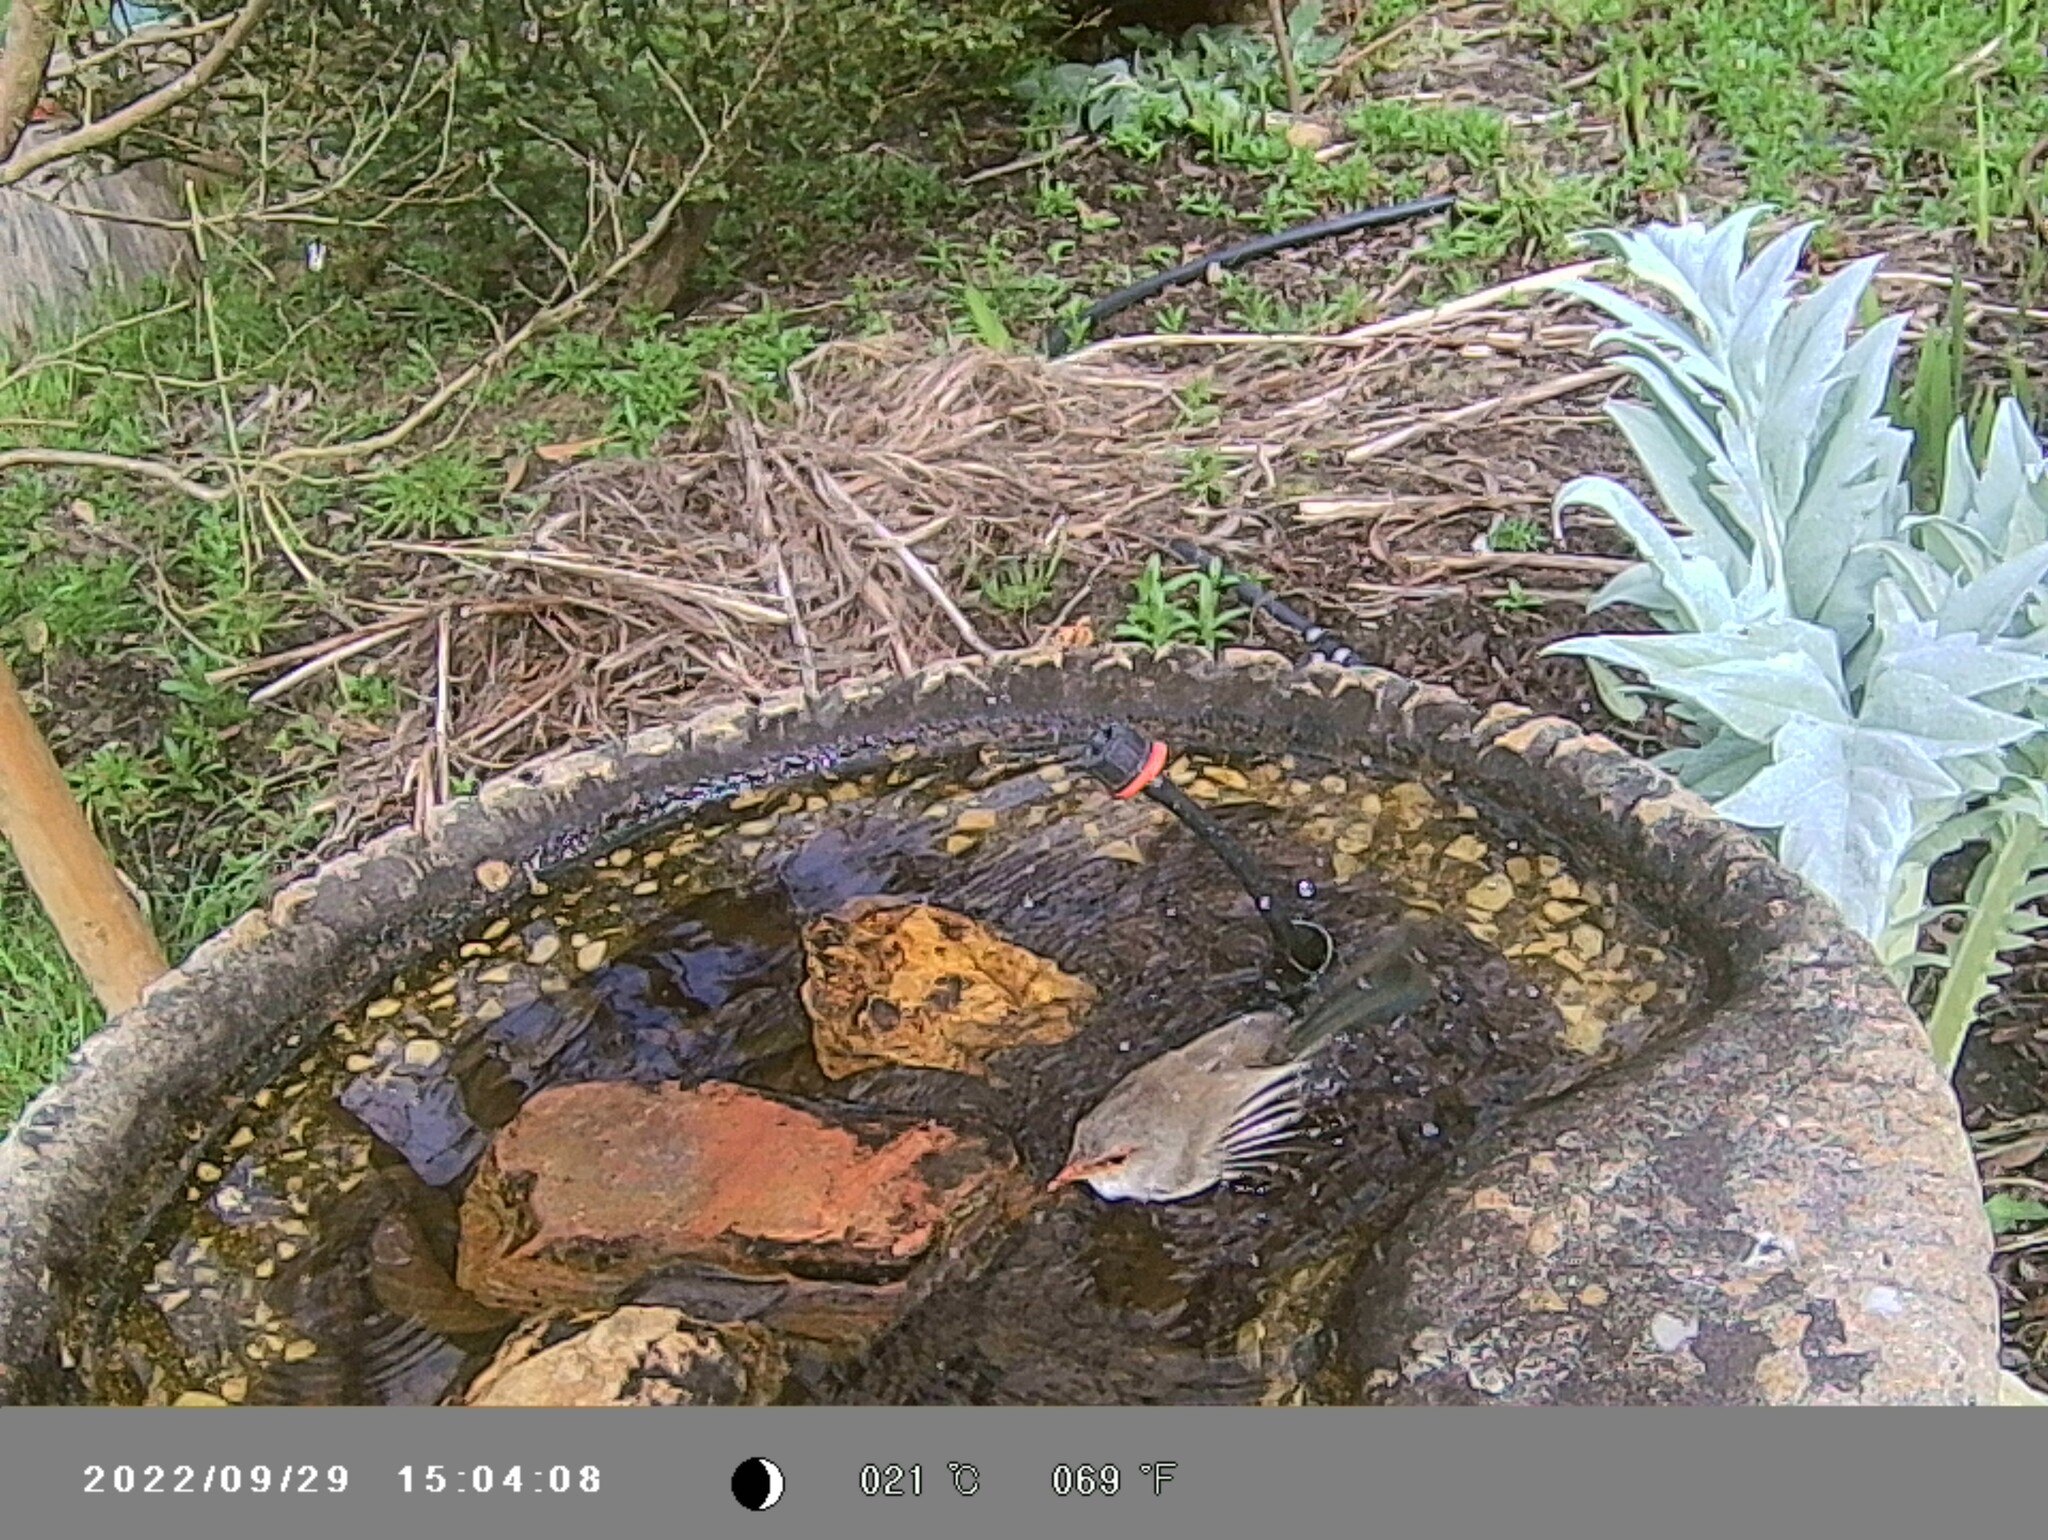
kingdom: Animalia
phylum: Chordata
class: Aves
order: Passeriformes
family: Maluridae
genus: Malurus
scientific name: Malurus cyaneus
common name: Superb fairywren
